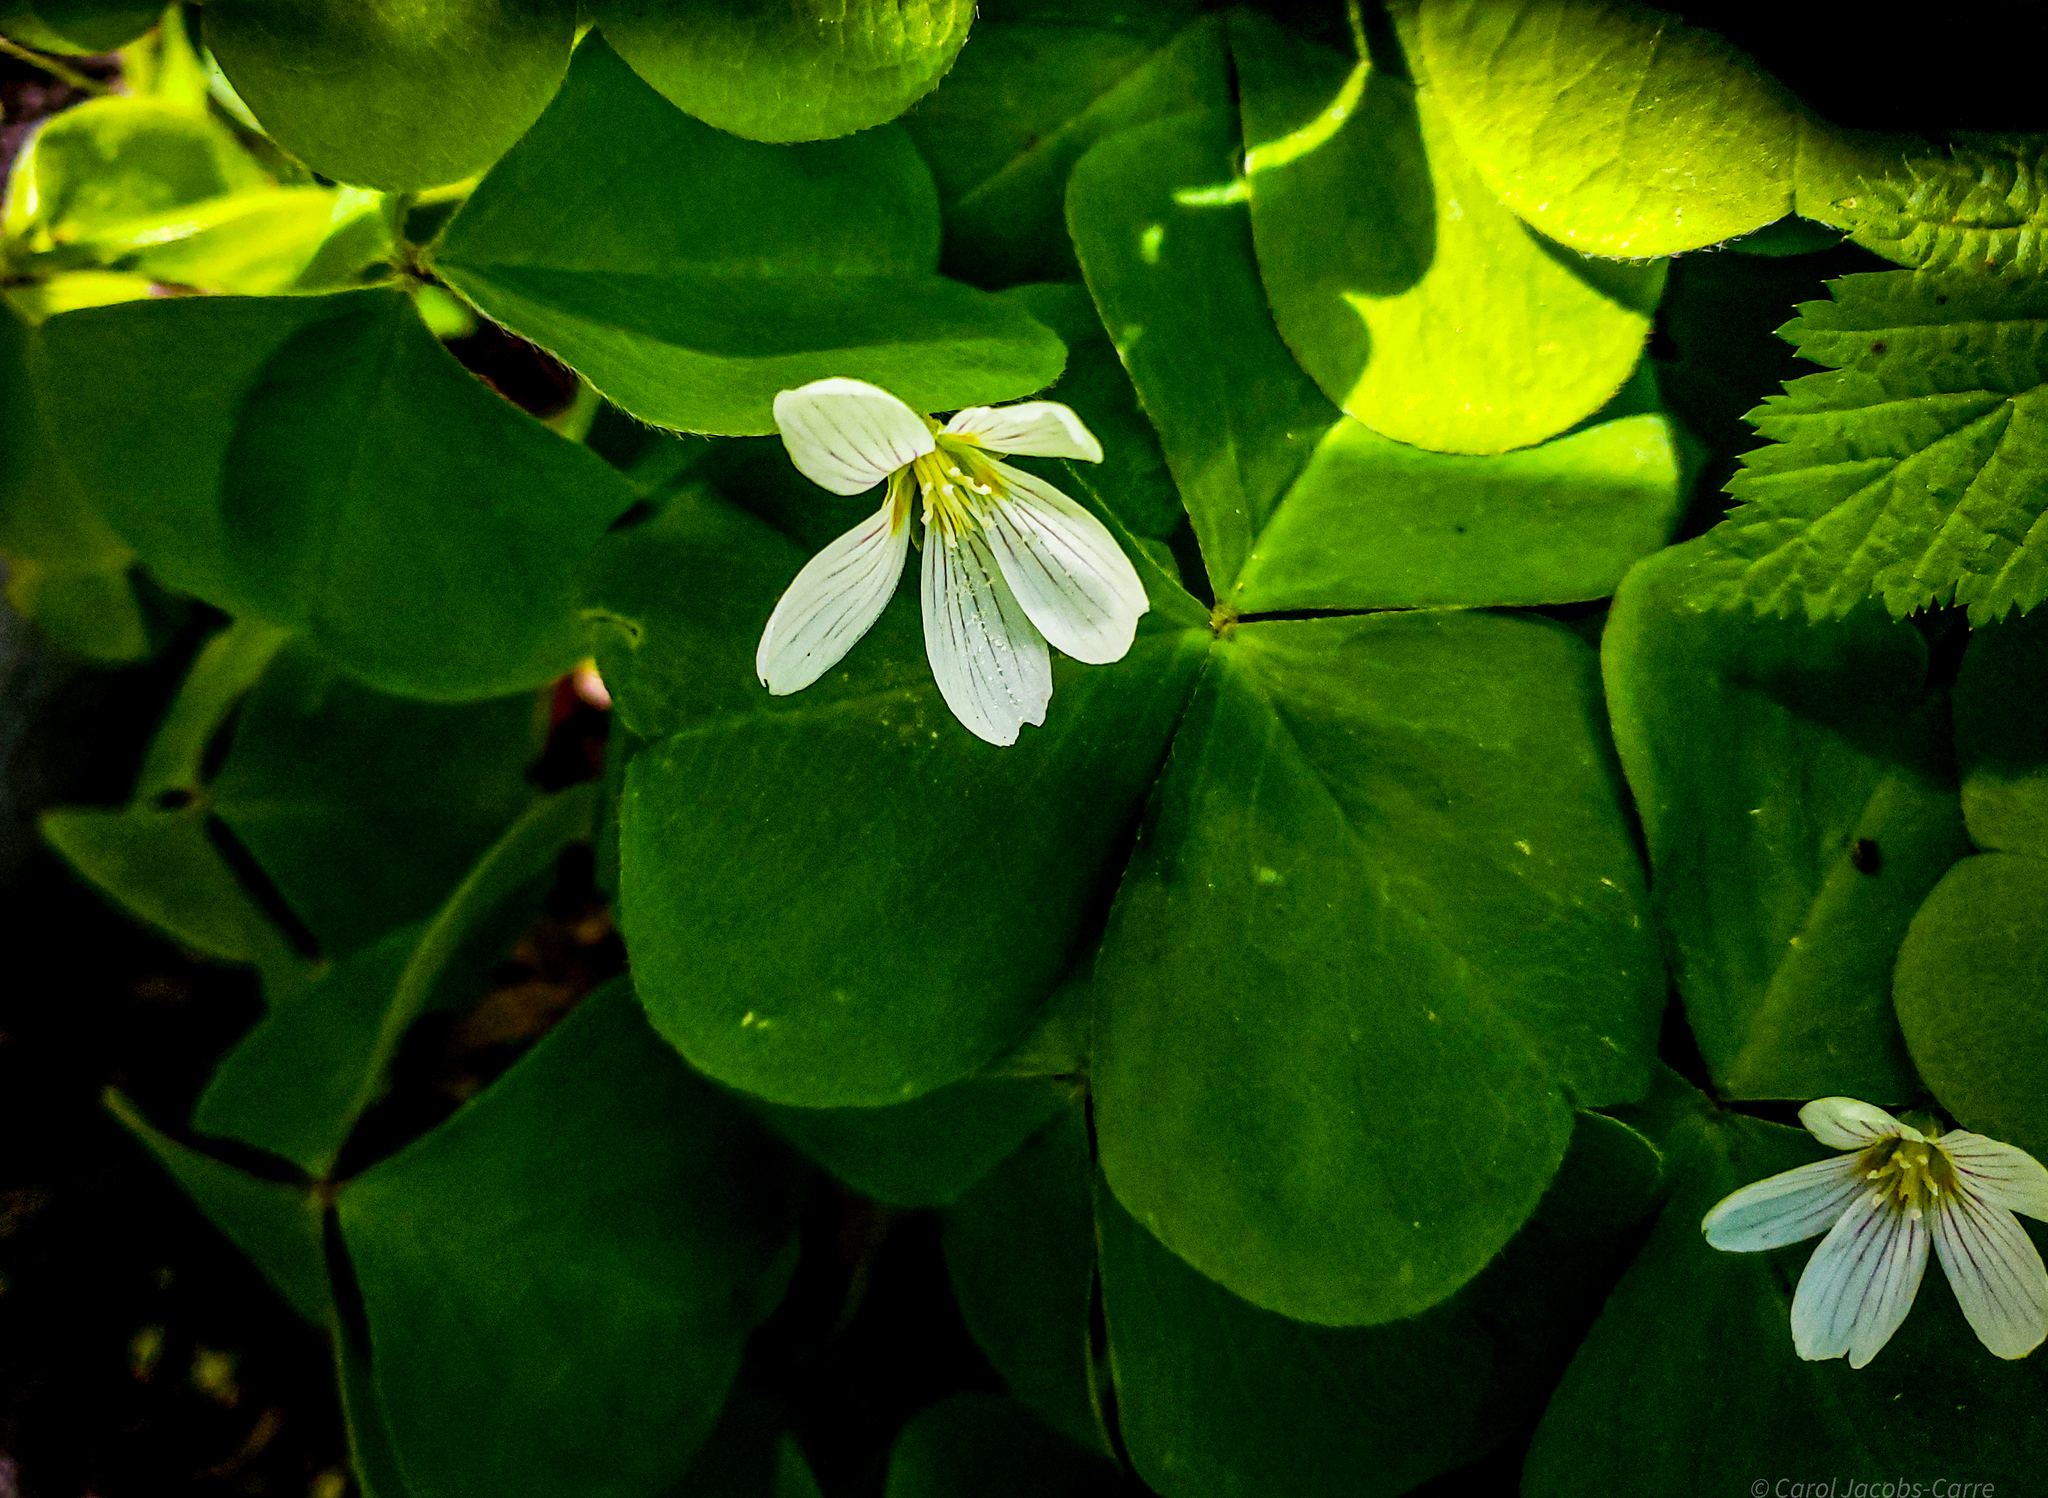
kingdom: Plantae
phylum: Tracheophyta
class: Magnoliopsida
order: Oxalidales
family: Oxalidaceae
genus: Oxalis
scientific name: Oxalis oregana
